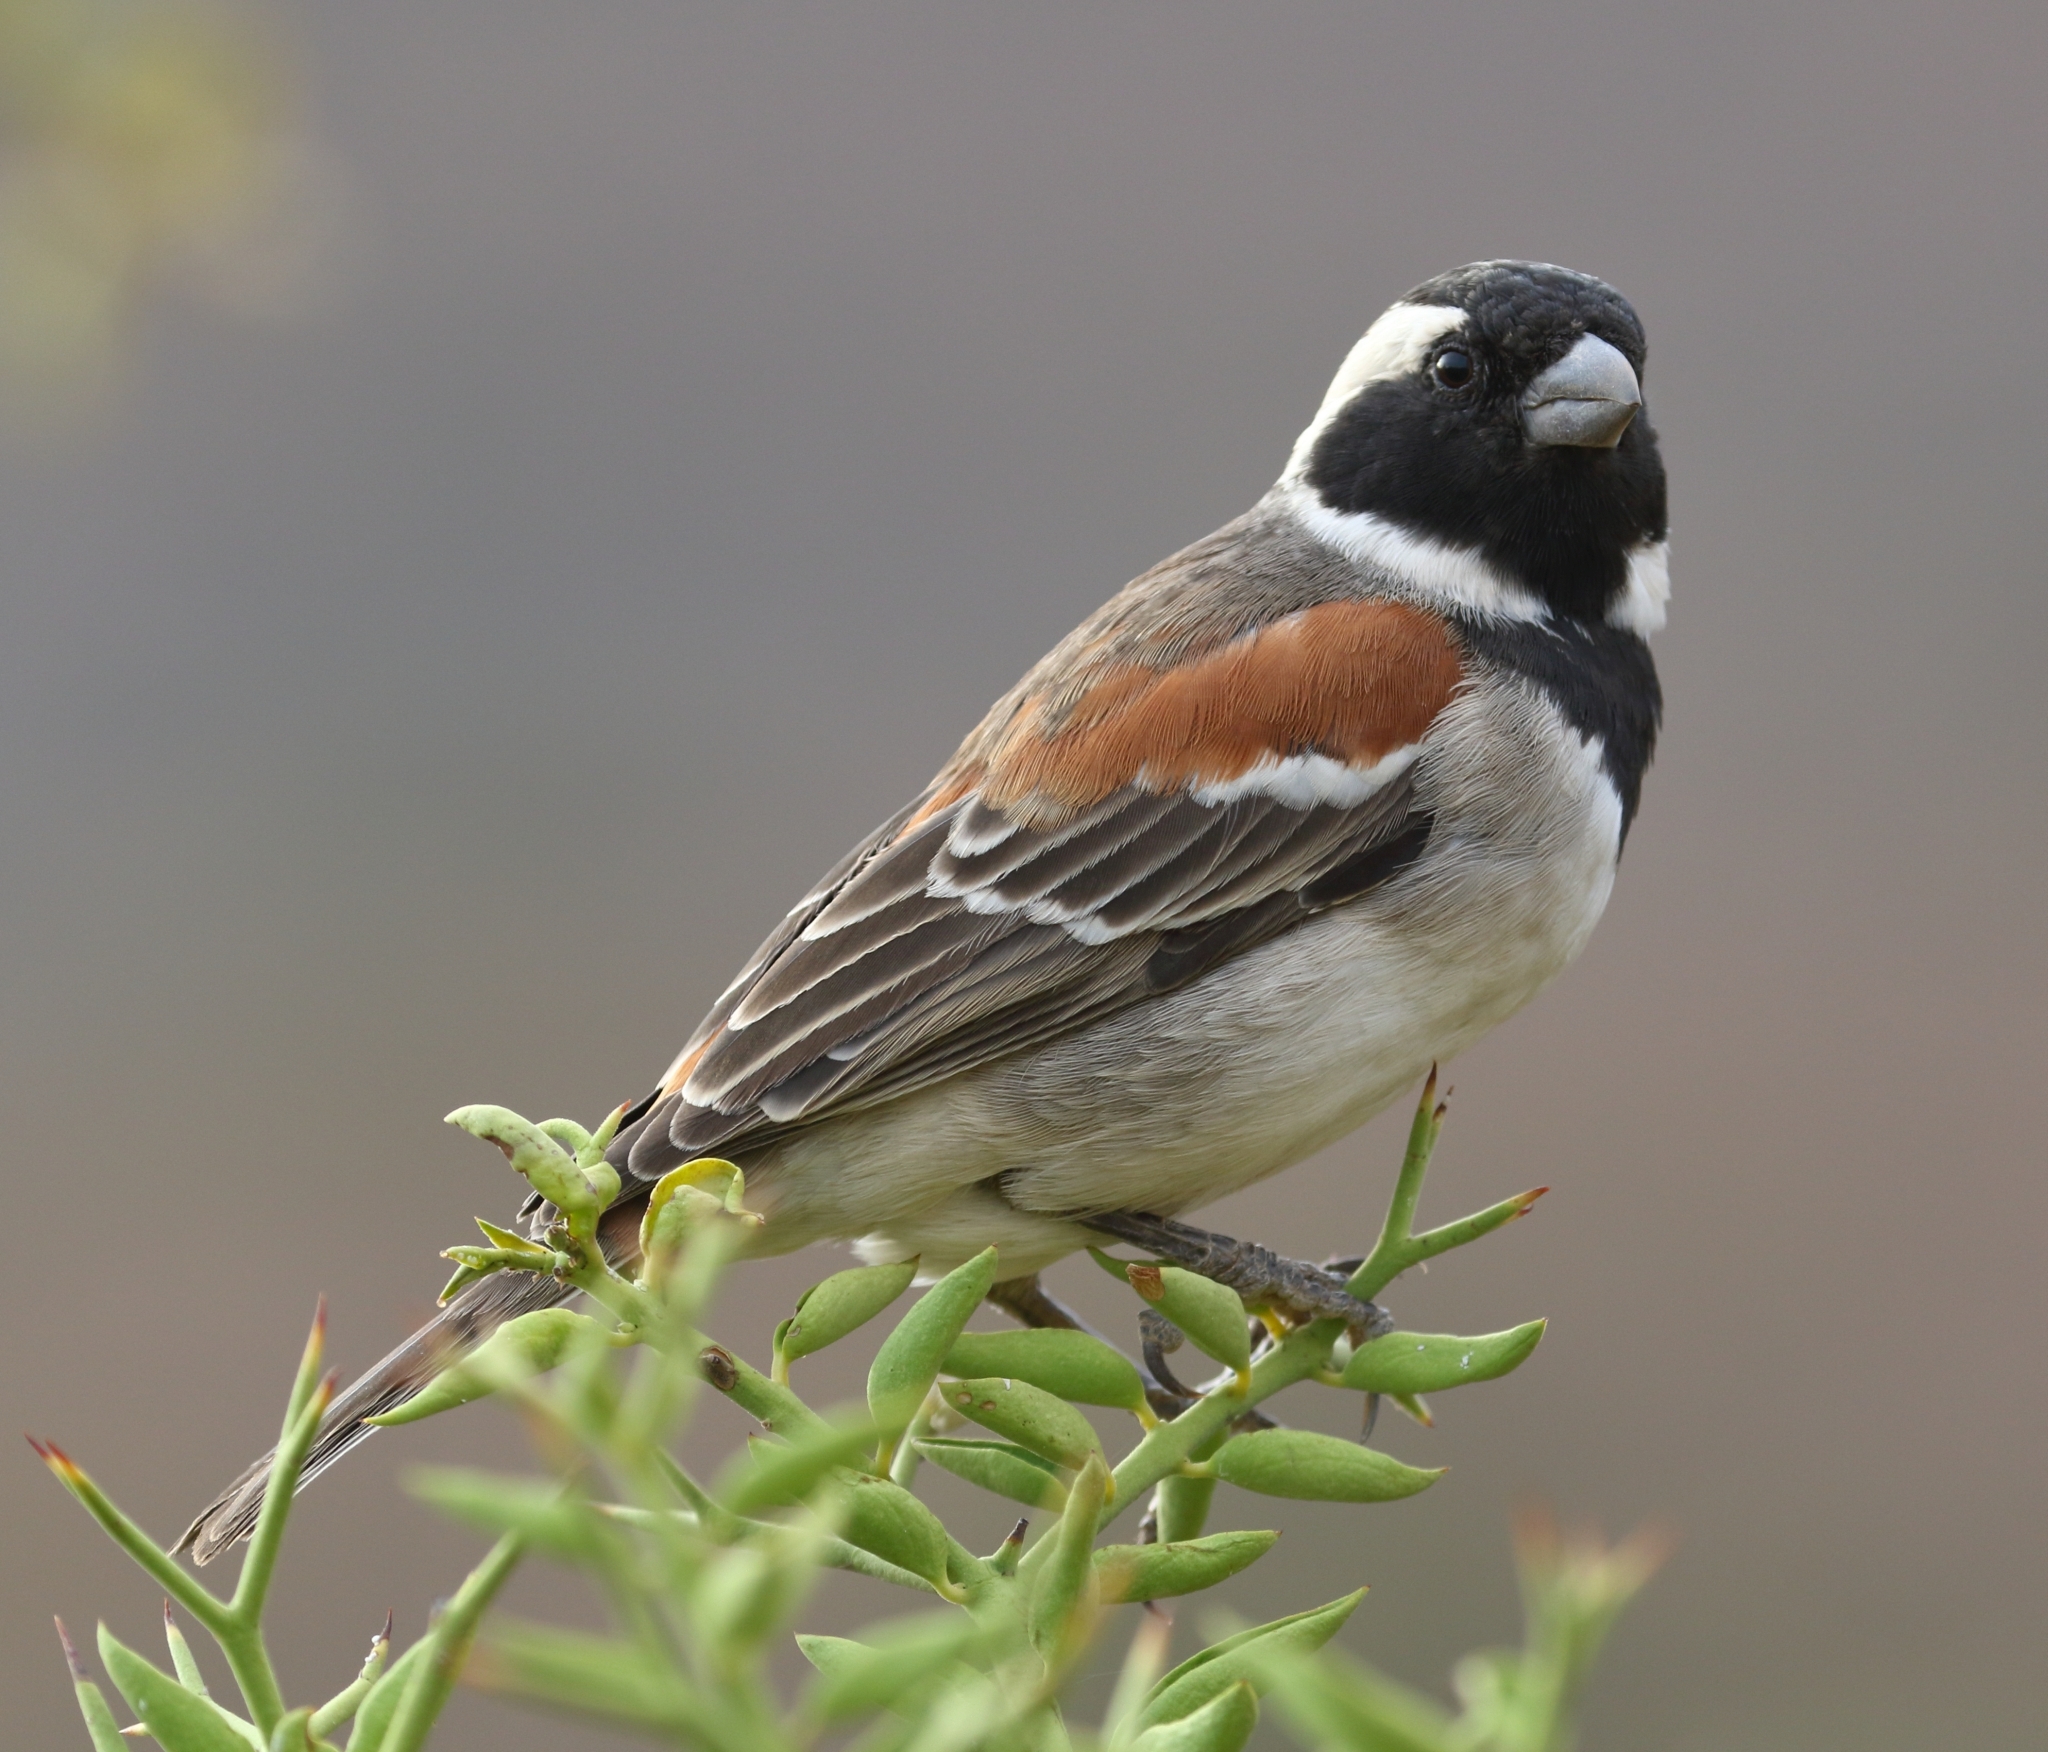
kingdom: Animalia
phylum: Chordata
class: Aves
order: Passeriformes
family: Passeridae
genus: Passer
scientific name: Passer melanurus
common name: Cape sparrow
